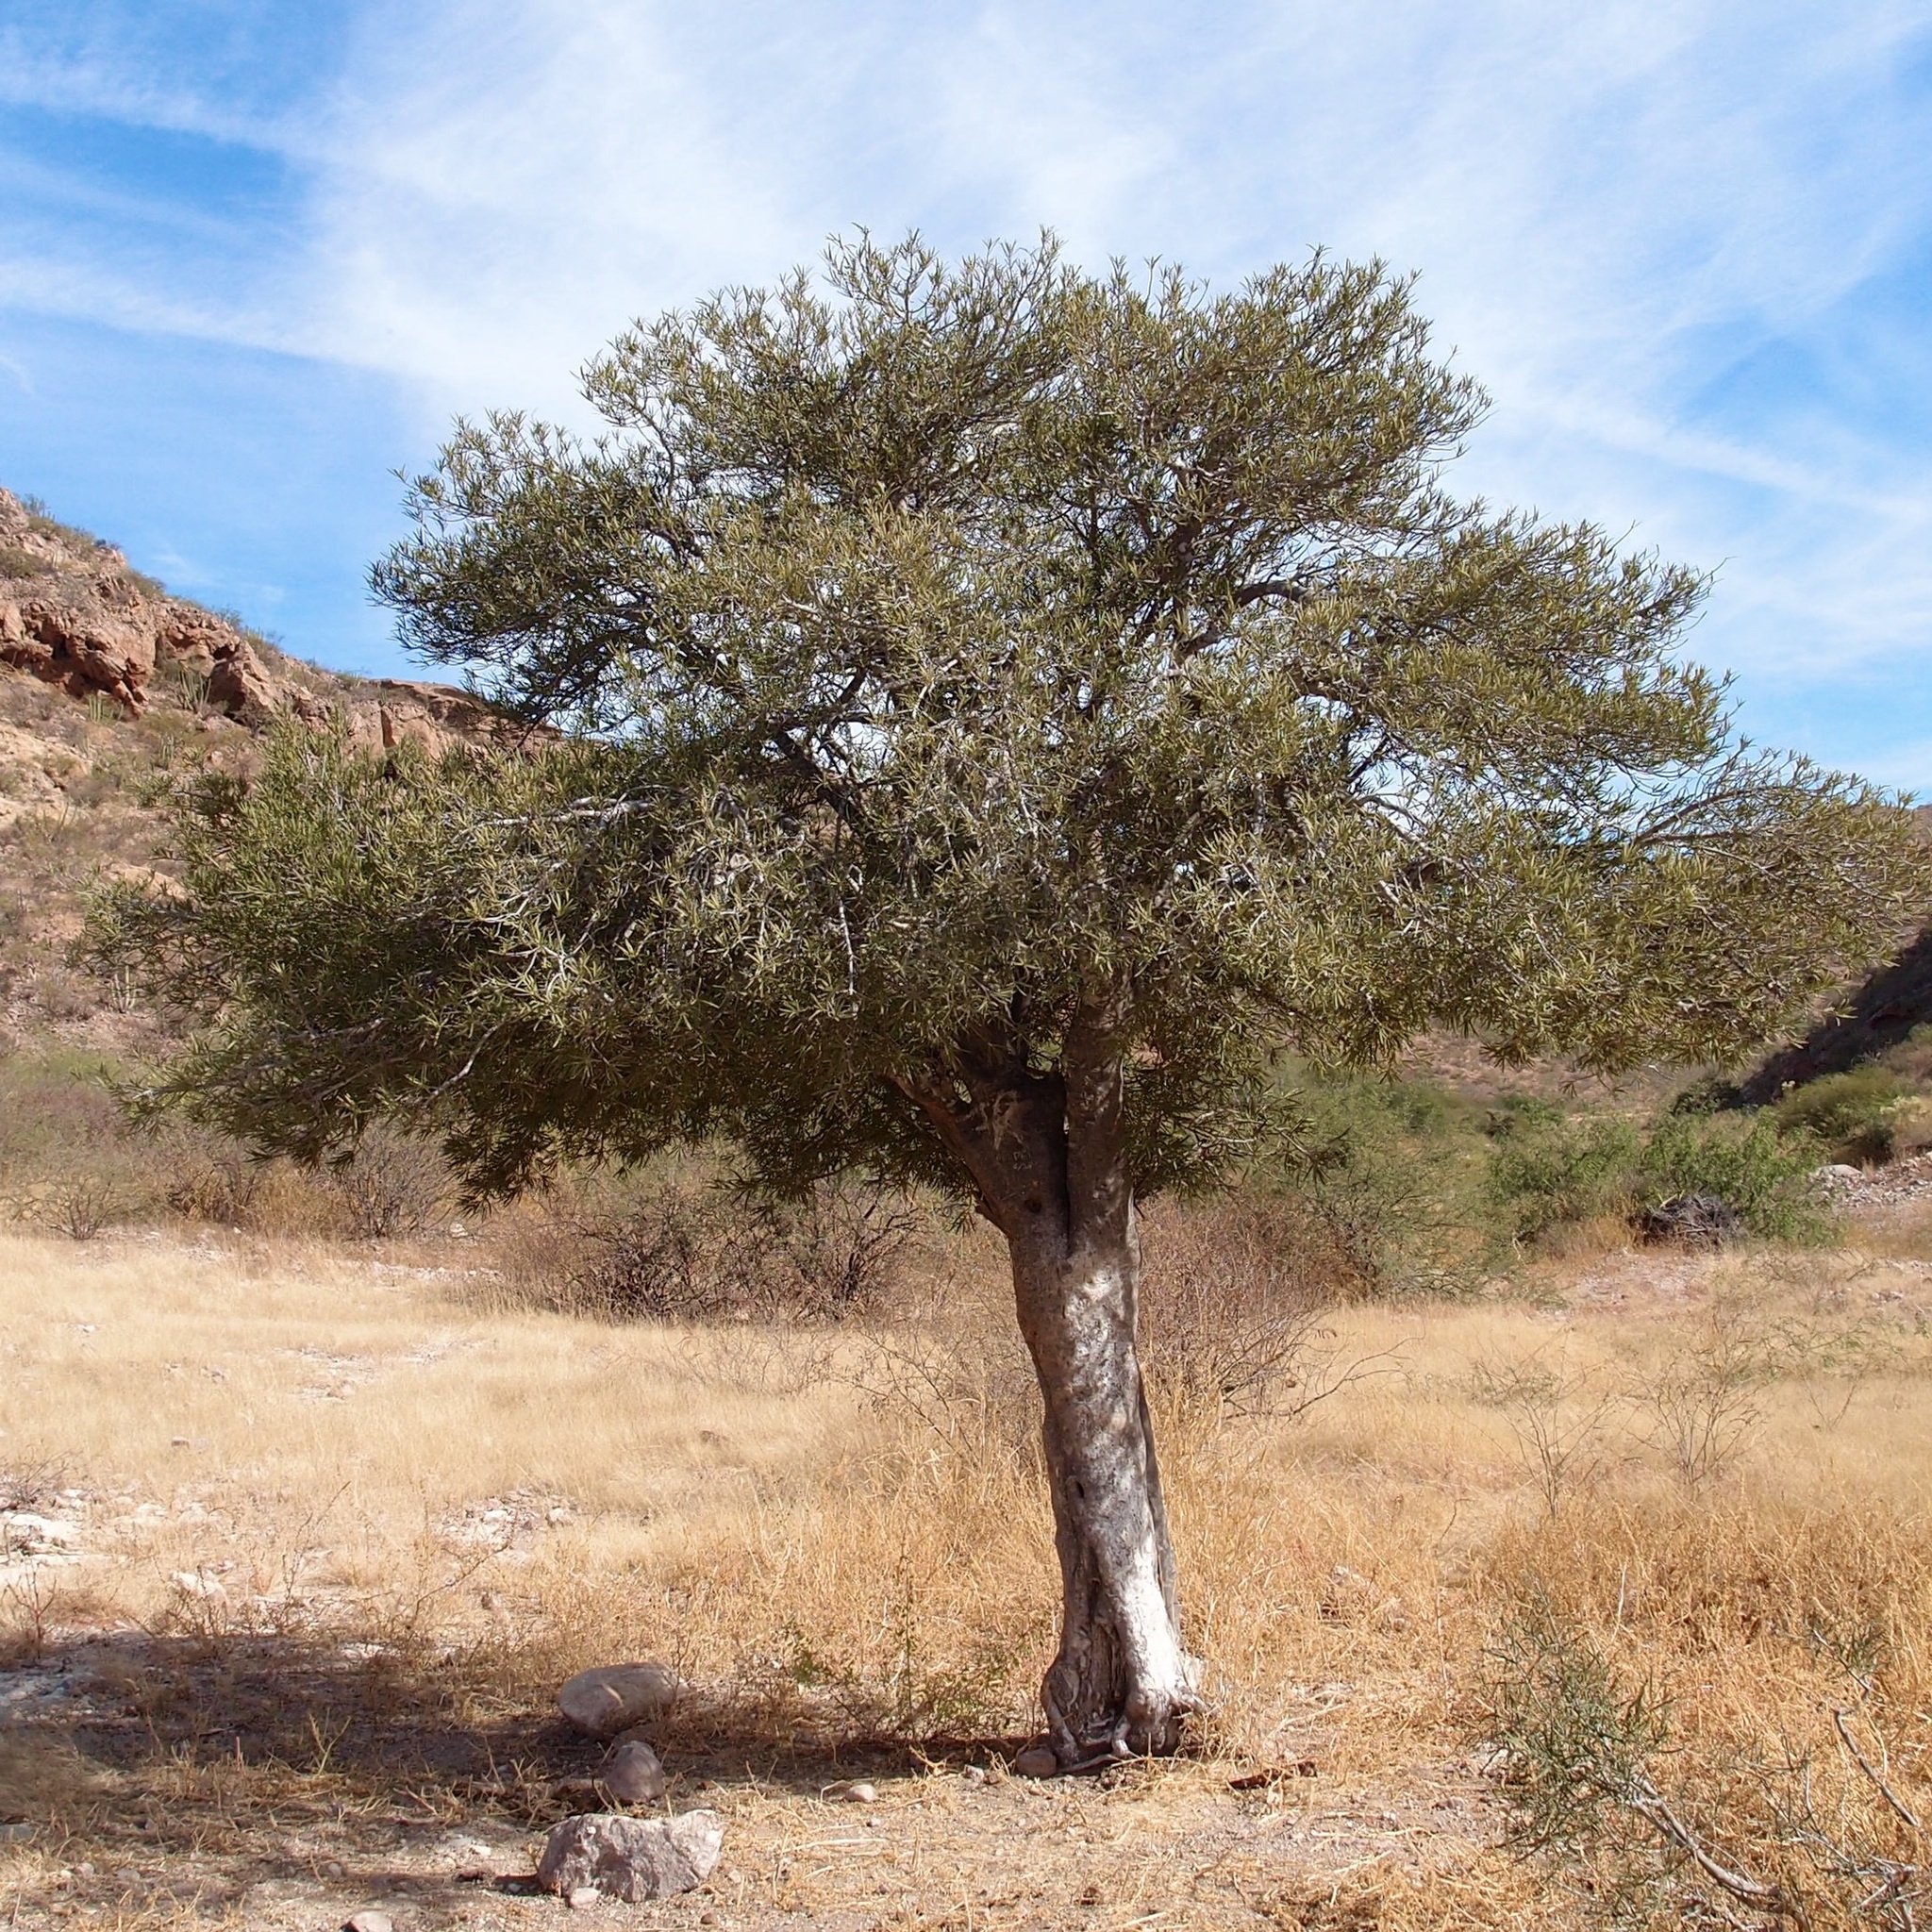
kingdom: Plantae
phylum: Tracheophyta
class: Magnoliopsida
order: Brassicales
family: Stixaceae
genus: Forchhammeria
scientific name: Forchhammeria watsonii
